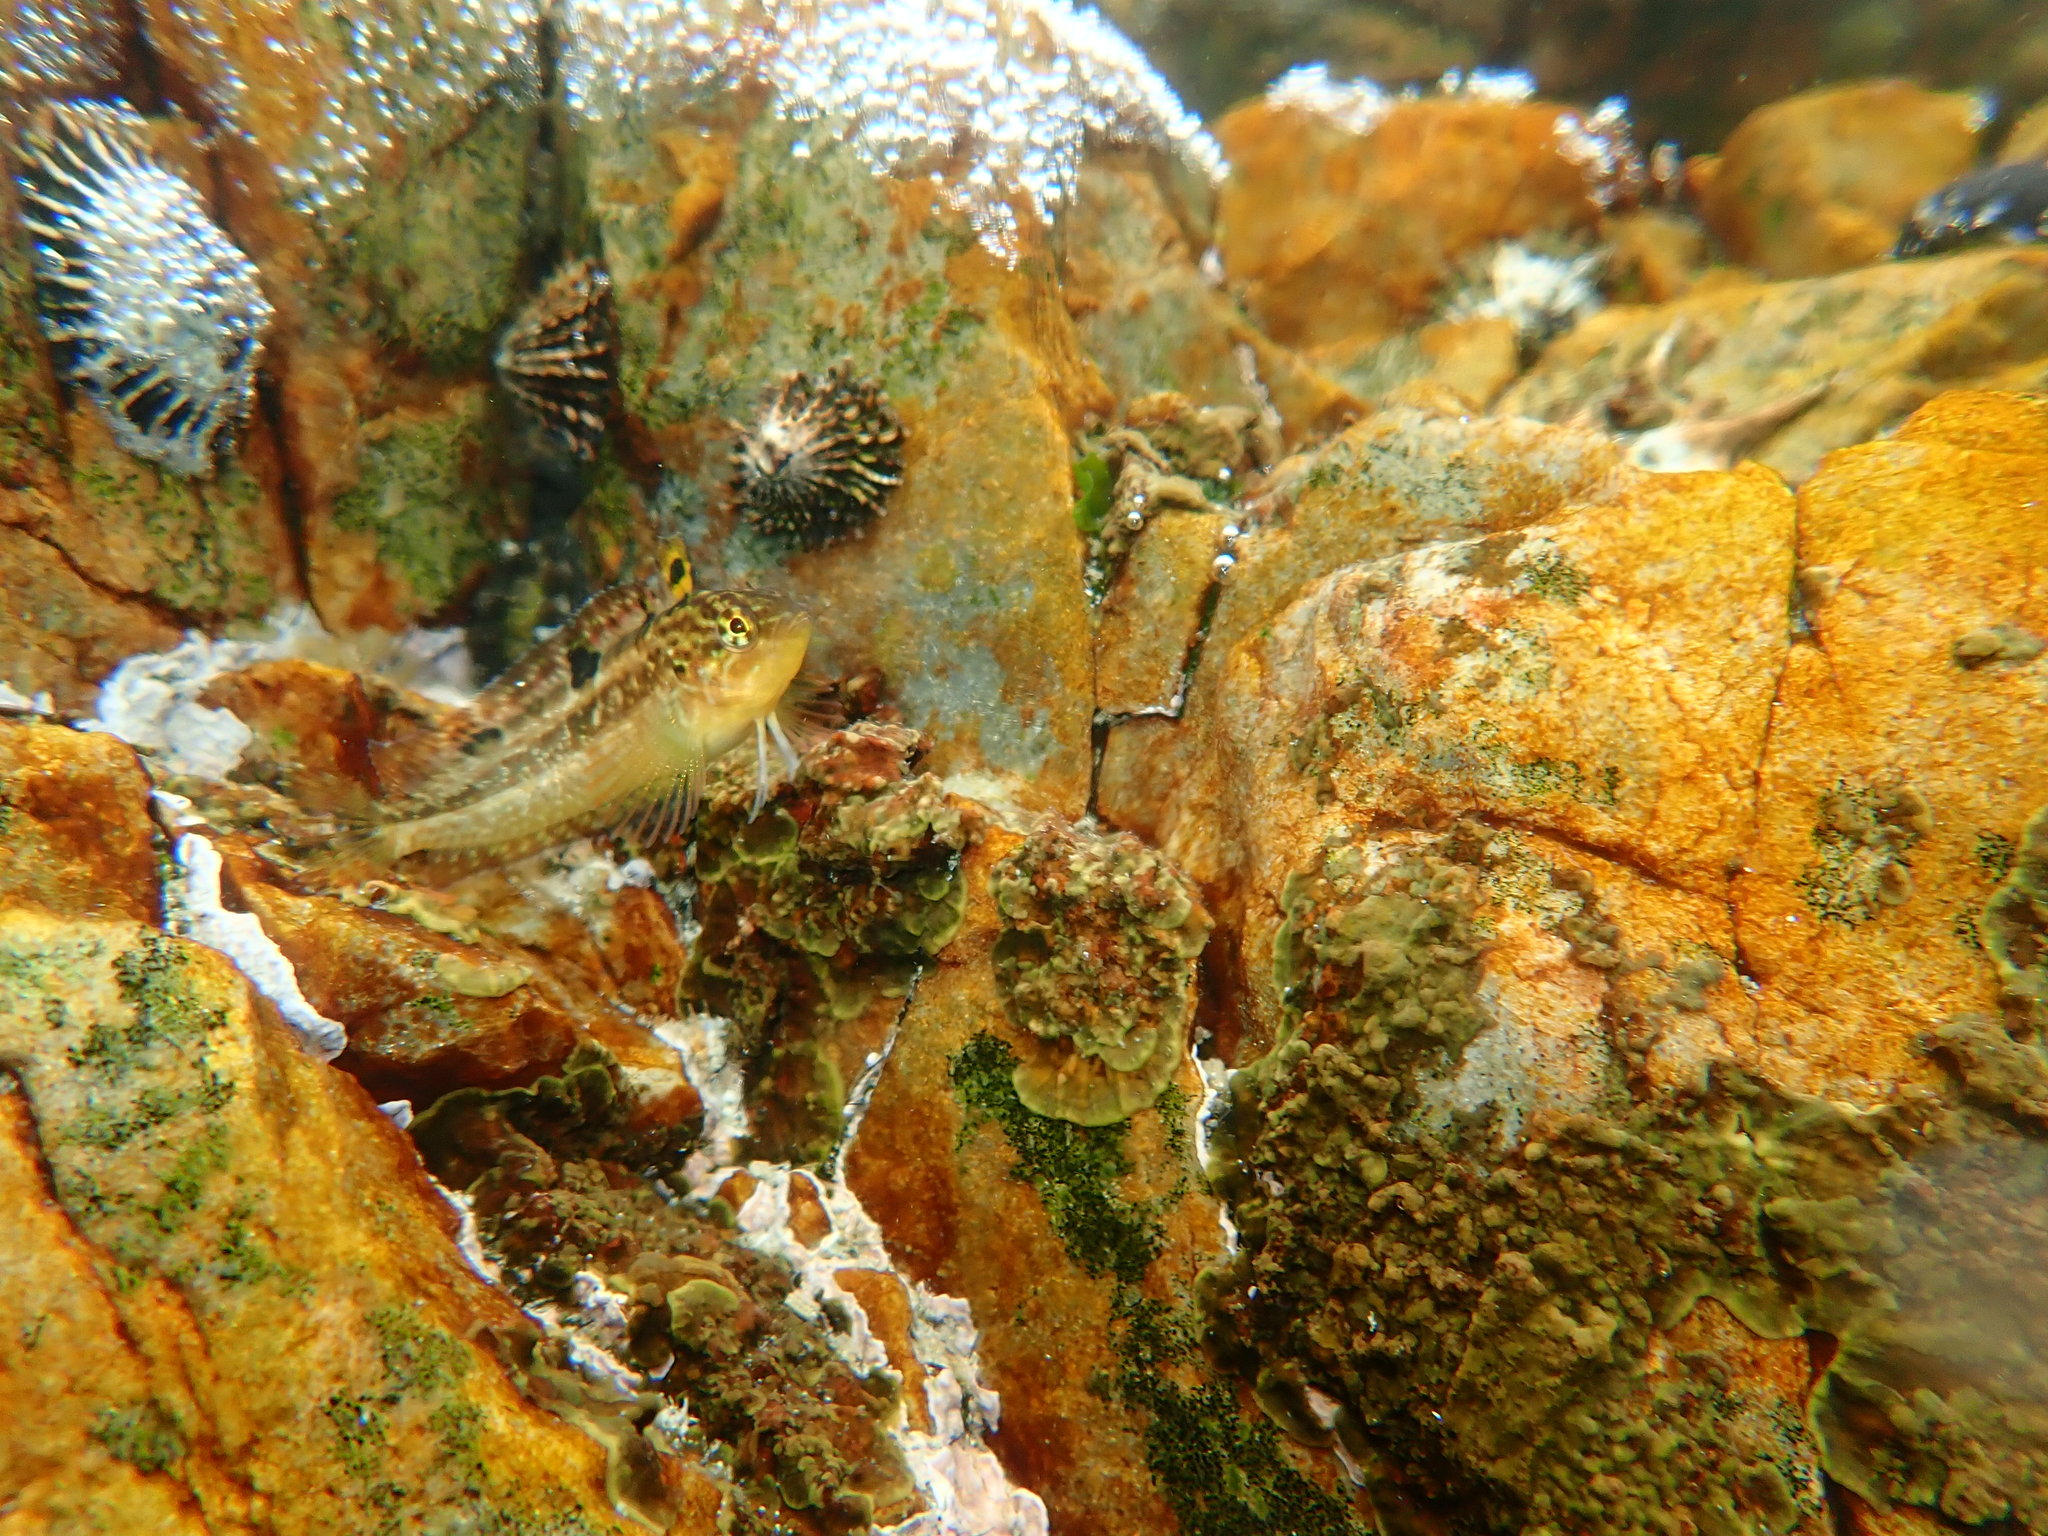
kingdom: Animalia
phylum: Chordata
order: Perciformes
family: Clinidae
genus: Clinus
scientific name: Clinus superciliosus
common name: Super klipfish
